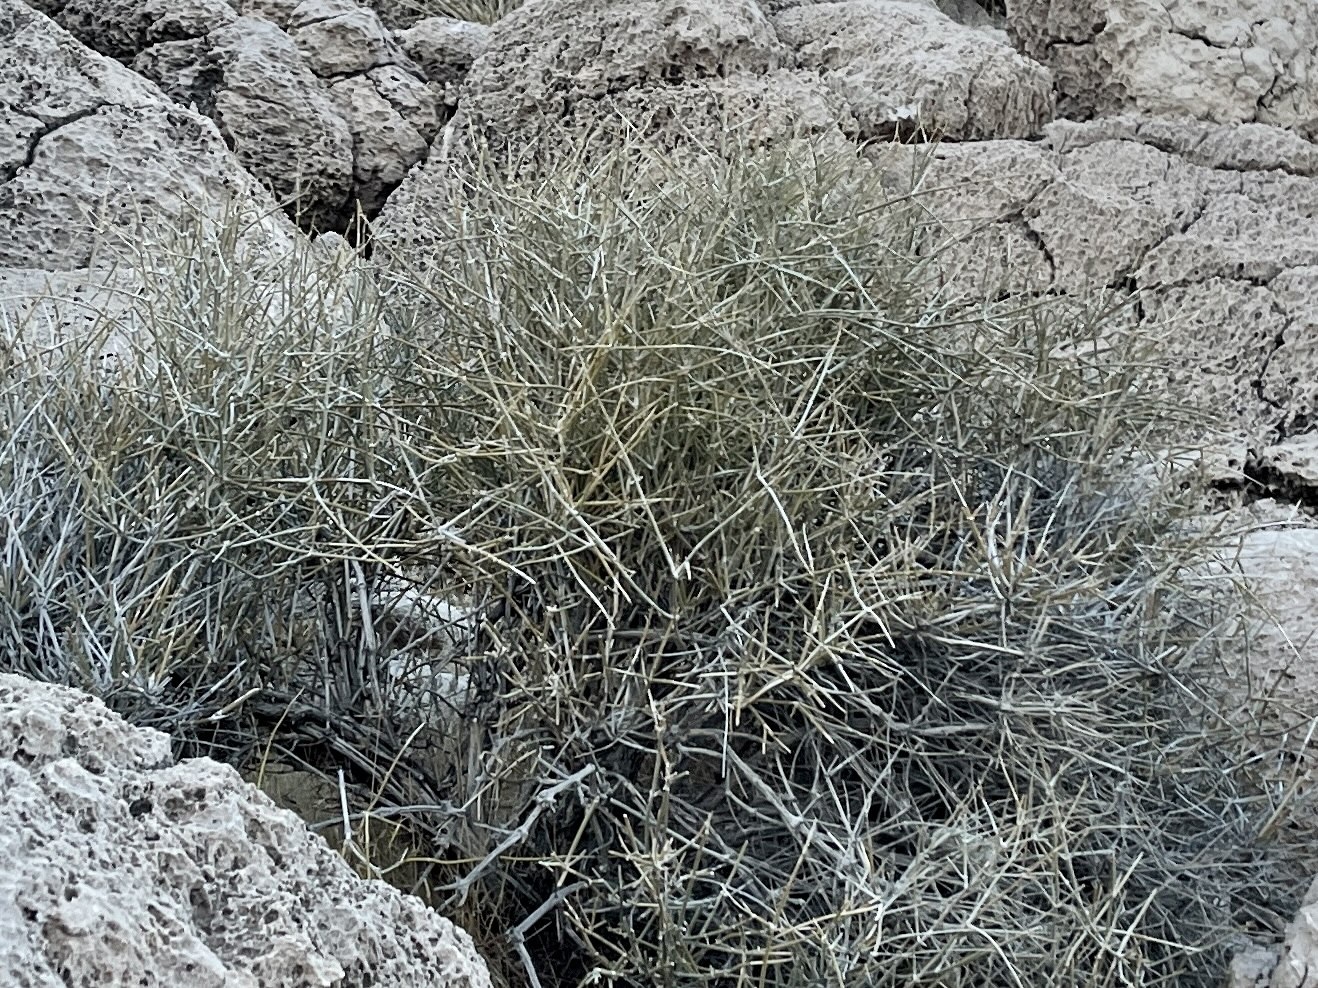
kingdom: Plantae
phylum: Tracheophyta
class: Gnetopsida
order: Ephedrales
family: Ephedraceae
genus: Ephedra
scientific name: Ephedra nevadensis
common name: Gray ephedra
